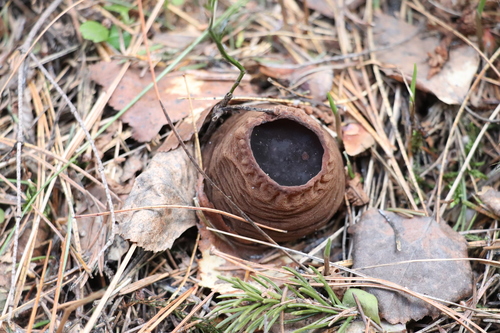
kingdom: Fungi
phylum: Ascomycota
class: Pezizomycetes
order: Pezizales
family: Sarcosomataceae
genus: Sarcosoma
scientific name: Sarcosoma globosum
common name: Charred-pancake cup
